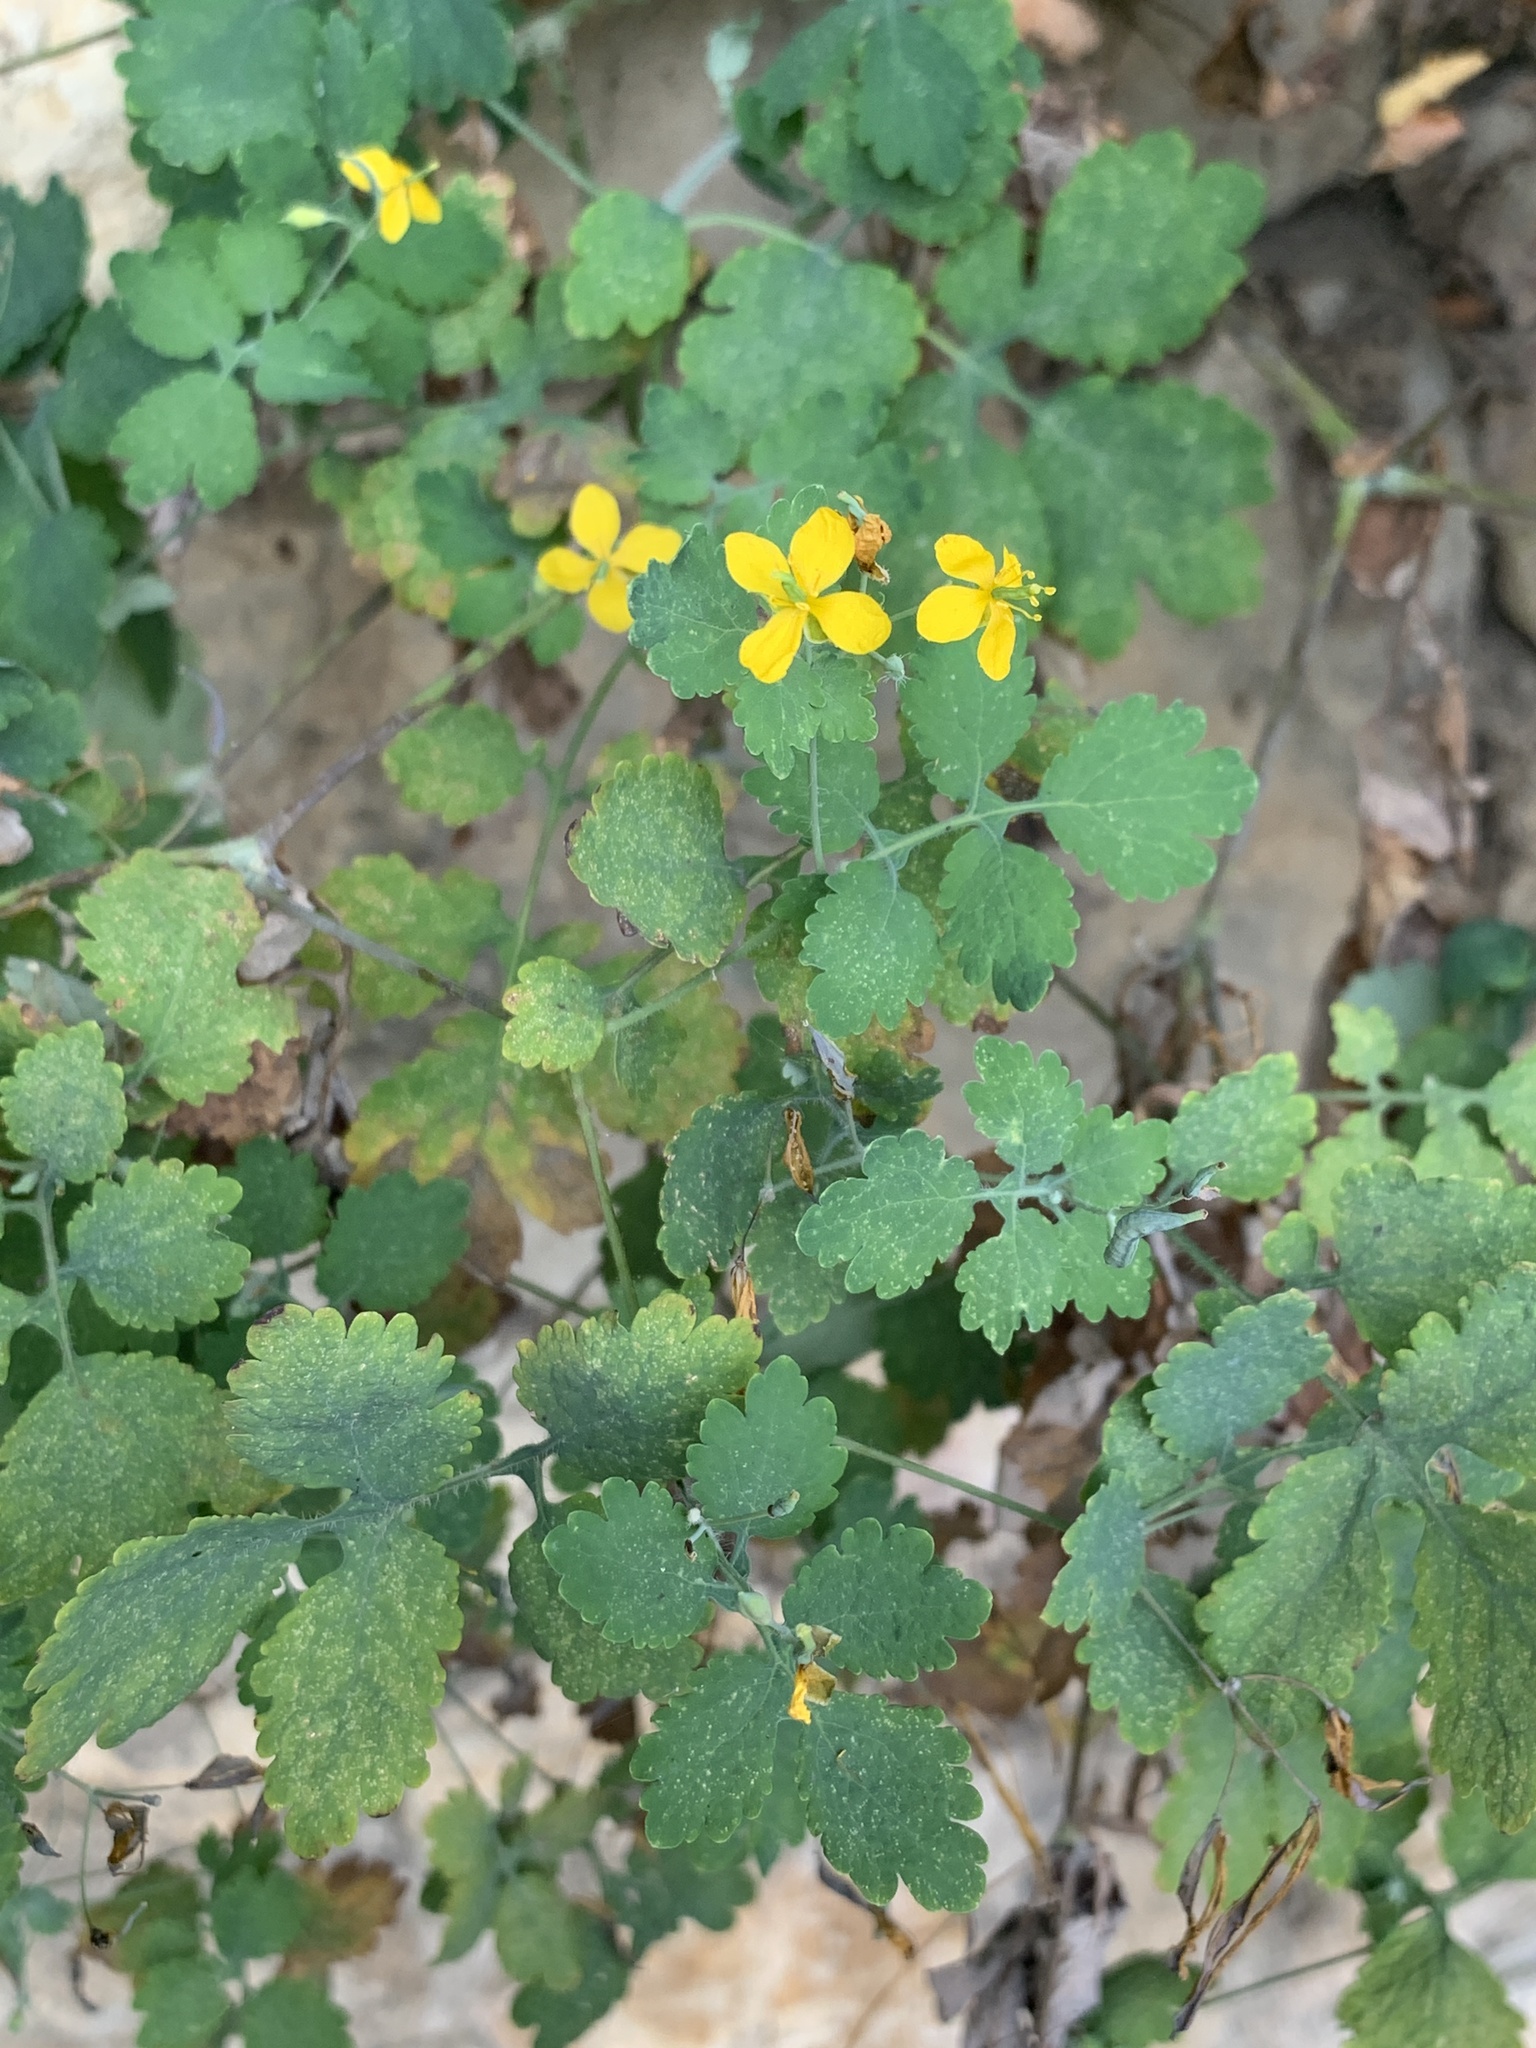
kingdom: Plantae
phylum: Tracheophyta
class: Magnoliopsida
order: Ranunculales
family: Papaveraceae
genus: Chelidonium
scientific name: Chelidonium majus
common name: Greater celandine
